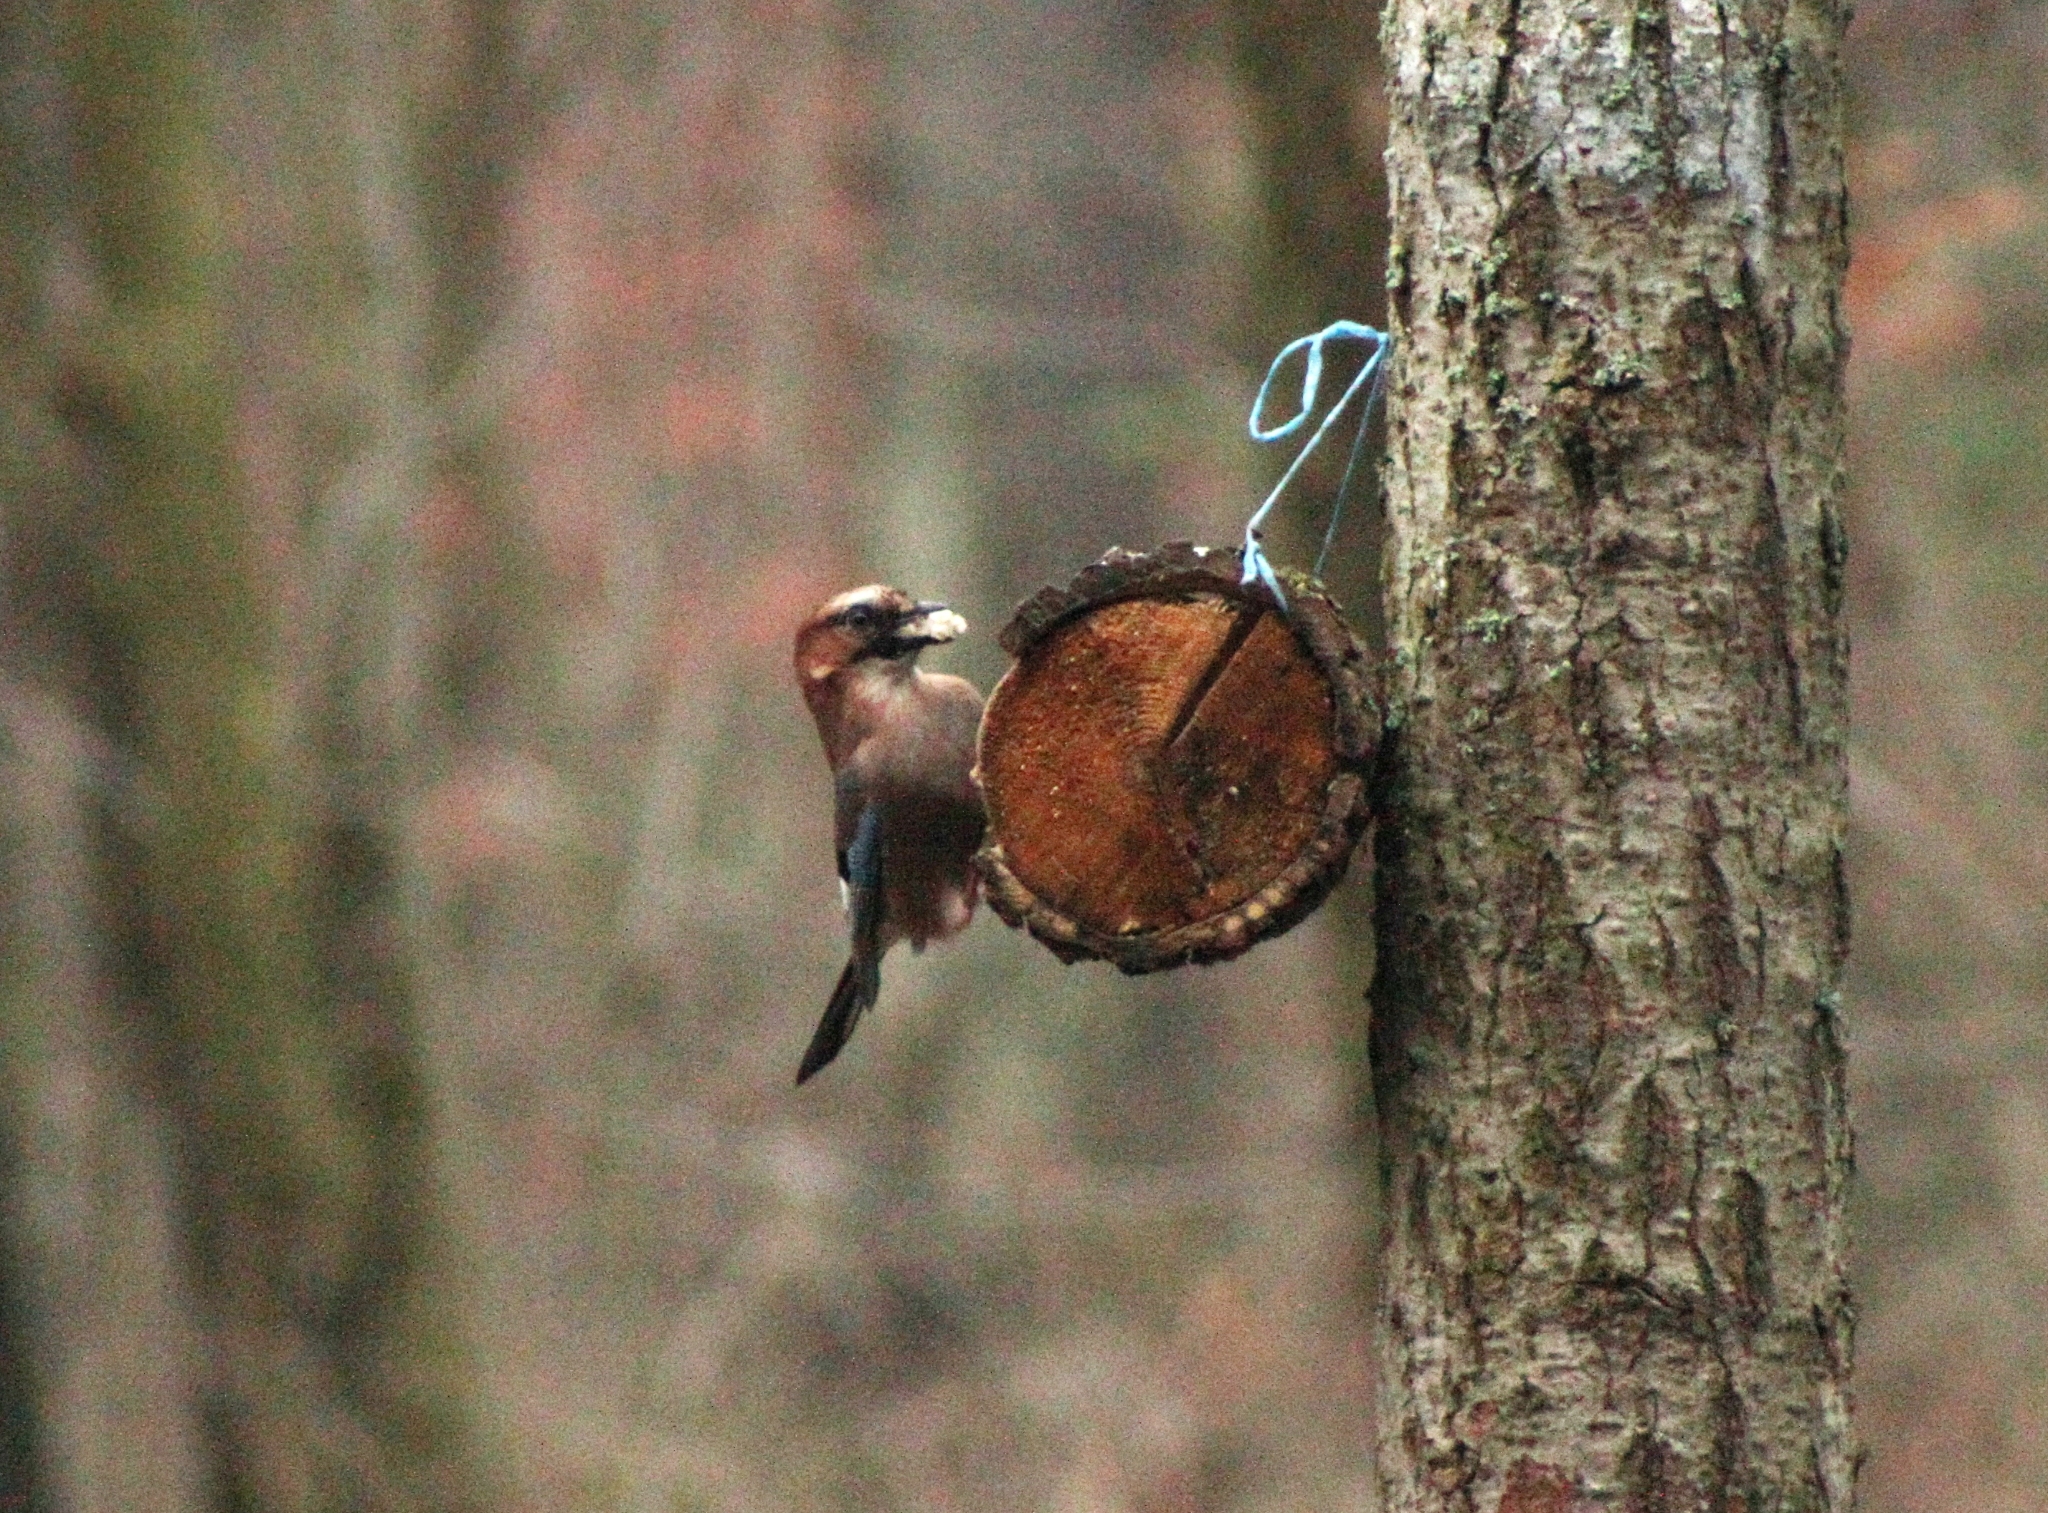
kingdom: Animalia
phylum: Chordata
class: Aves
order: Passeriformes
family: Corvidae
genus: Garrulus
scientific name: Garrulus glandarius
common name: Eurasian jay
